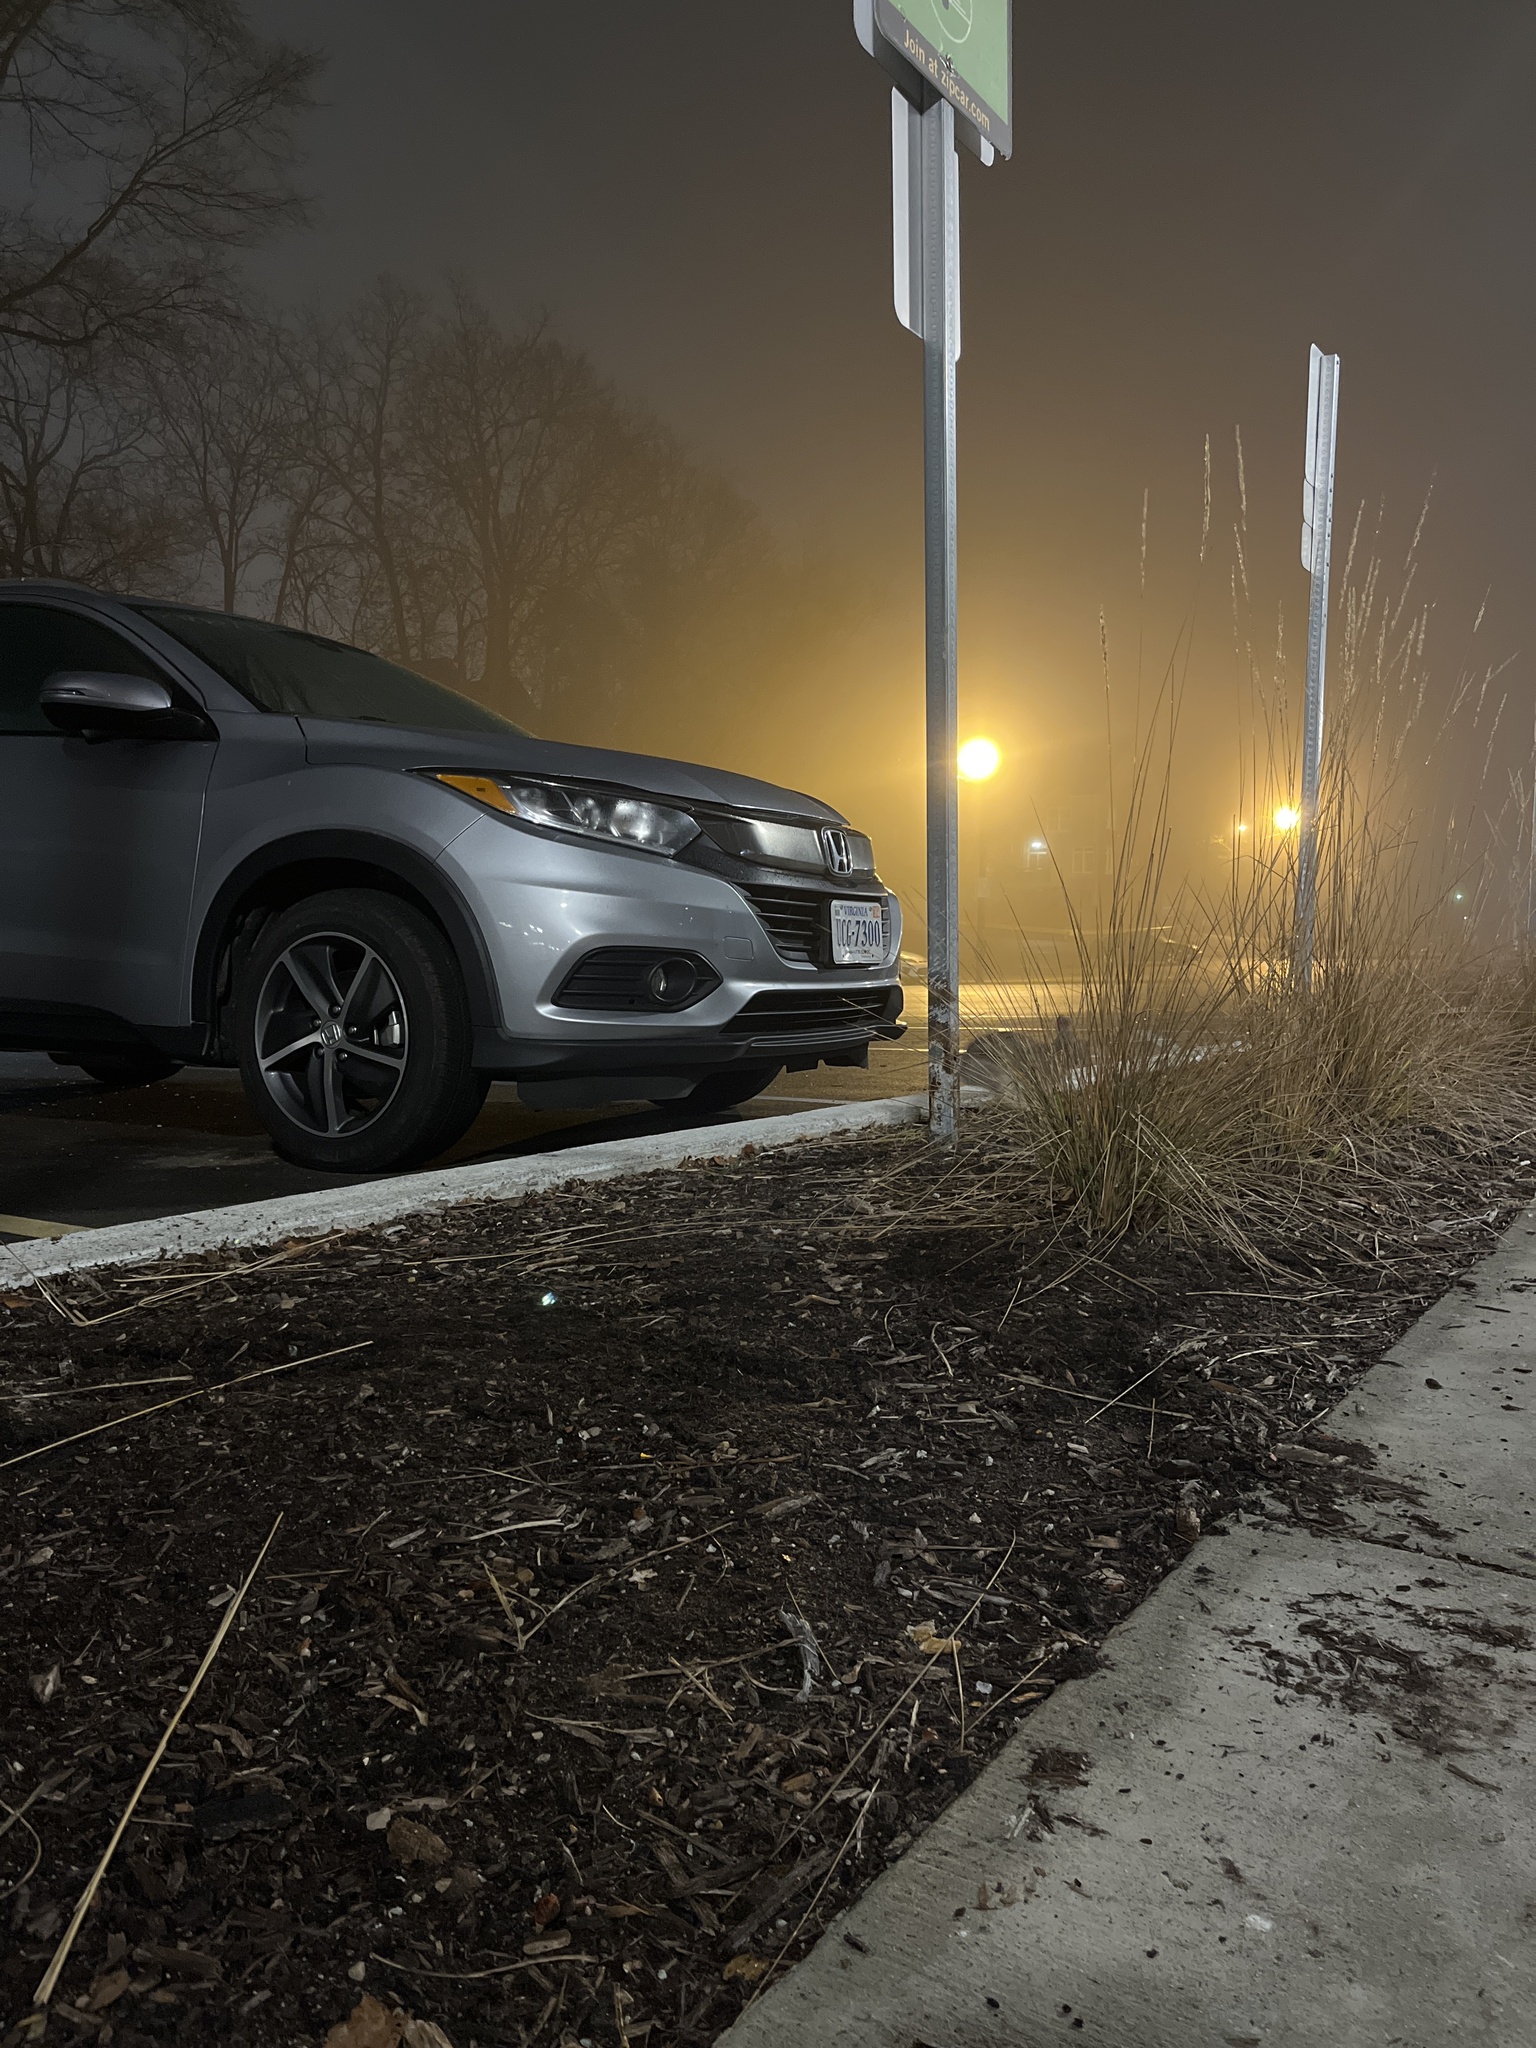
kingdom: Animalia
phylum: Chordata
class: Mammalia
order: Lagomorpha
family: Leporidae
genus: Sylvilagus
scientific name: Sylvilagus floridanus
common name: Eastern cottontail
